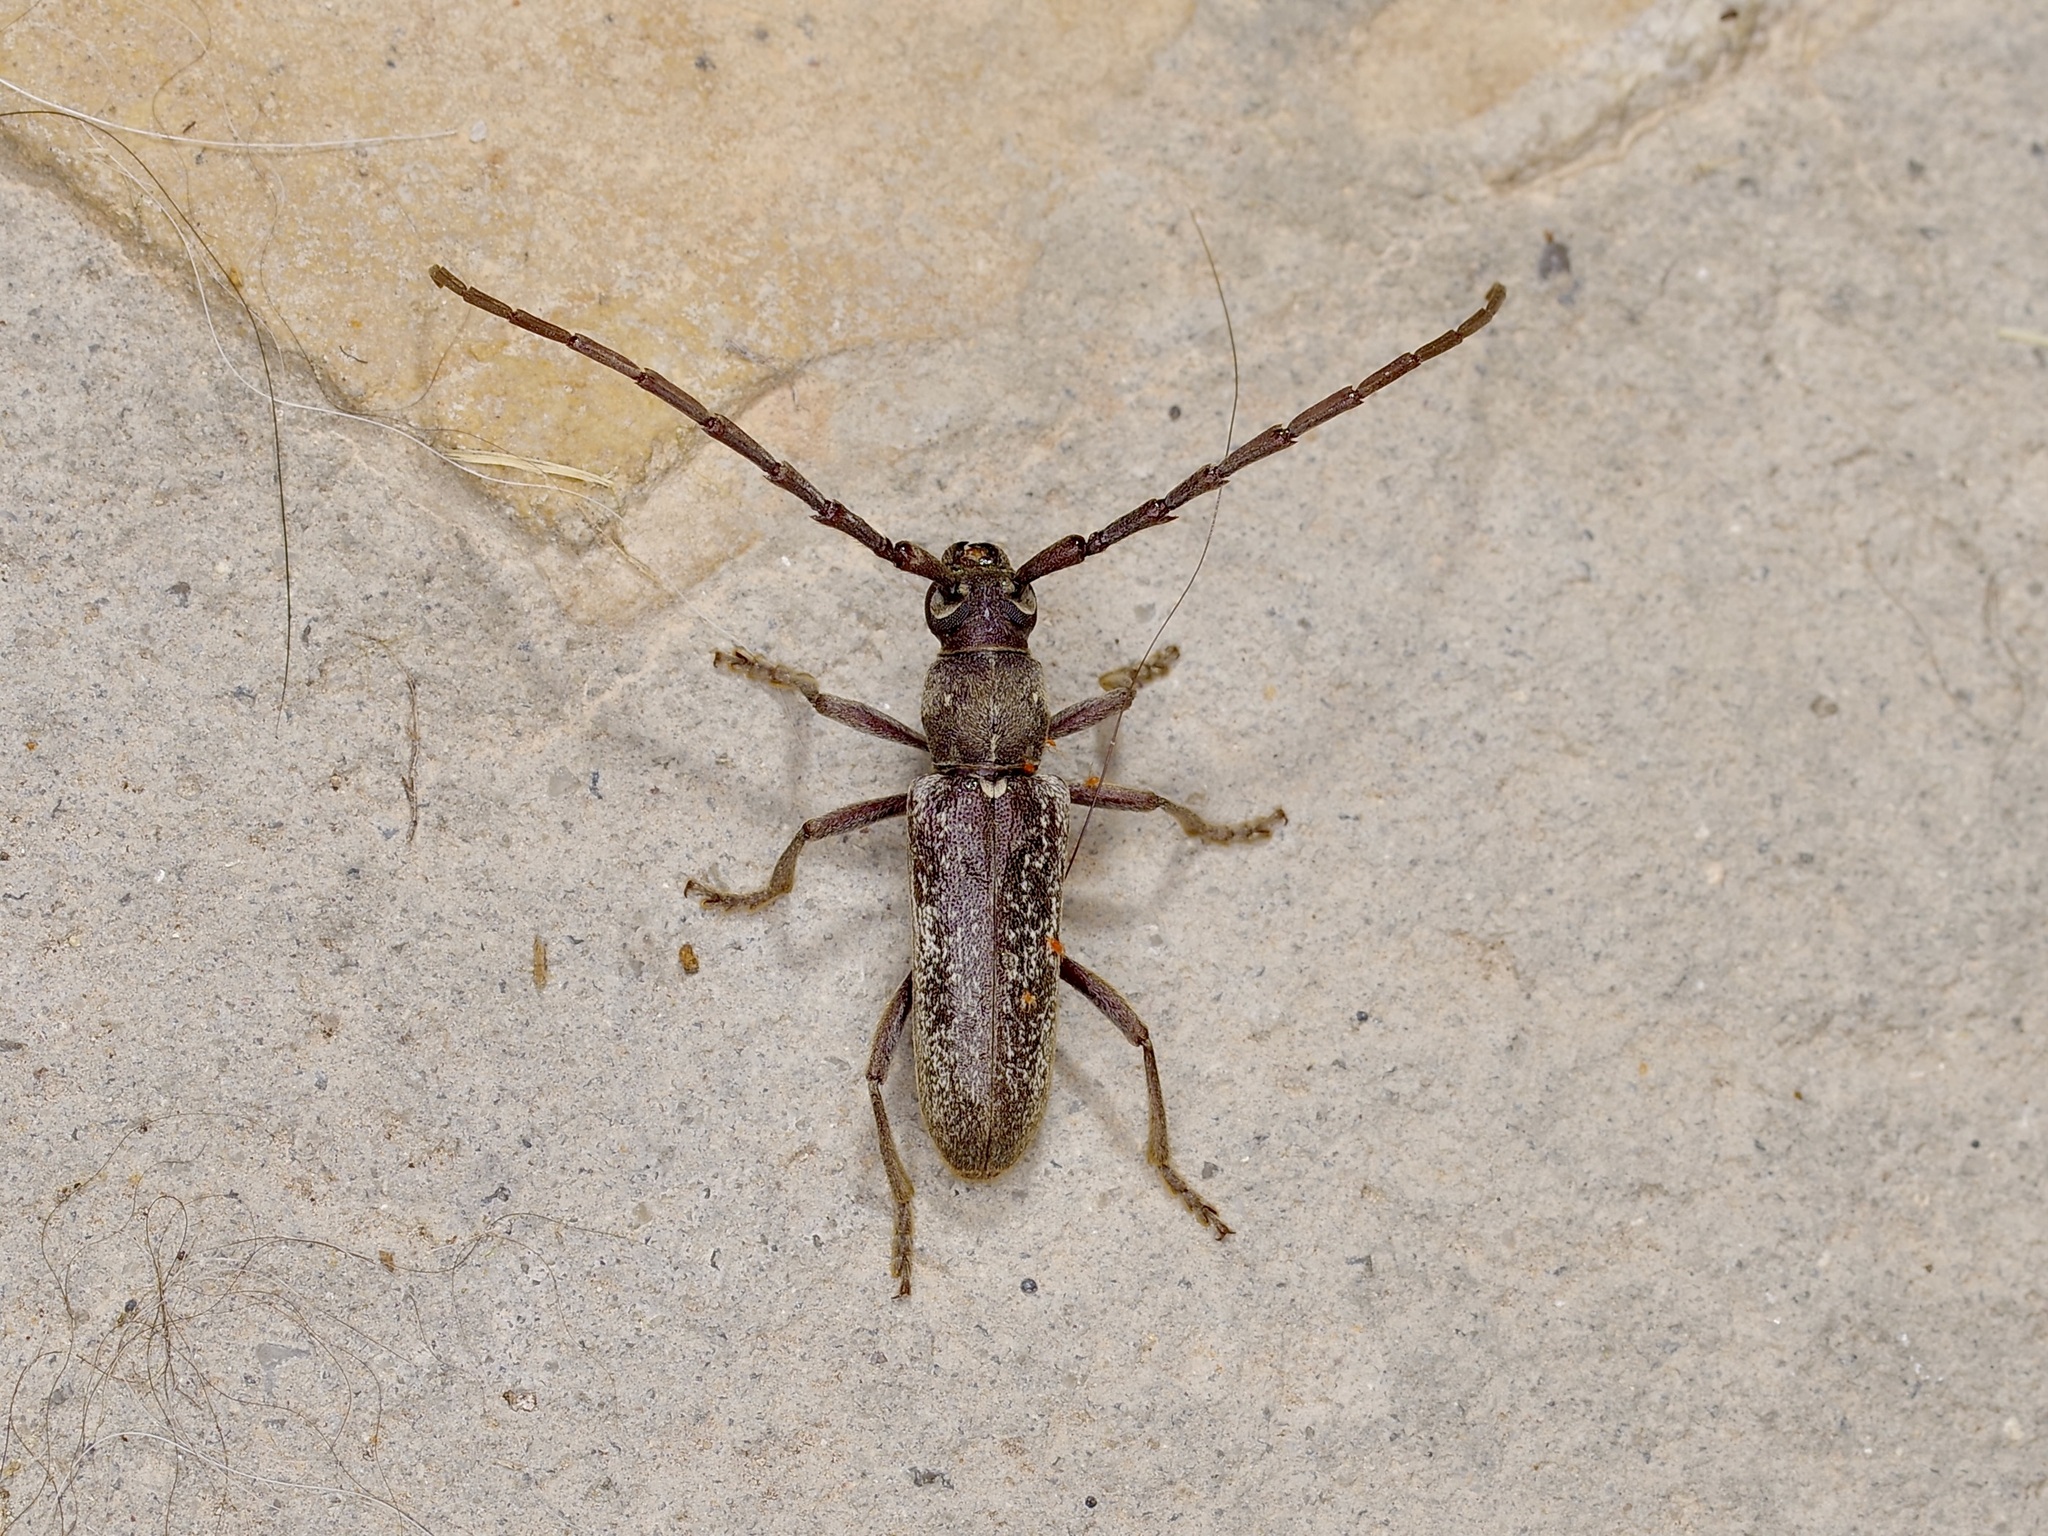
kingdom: Animalia
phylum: Arthropoda
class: Insecta
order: Coleoptera
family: Cerambycidae
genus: Anelaphus
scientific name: Anelaphus subinermis
